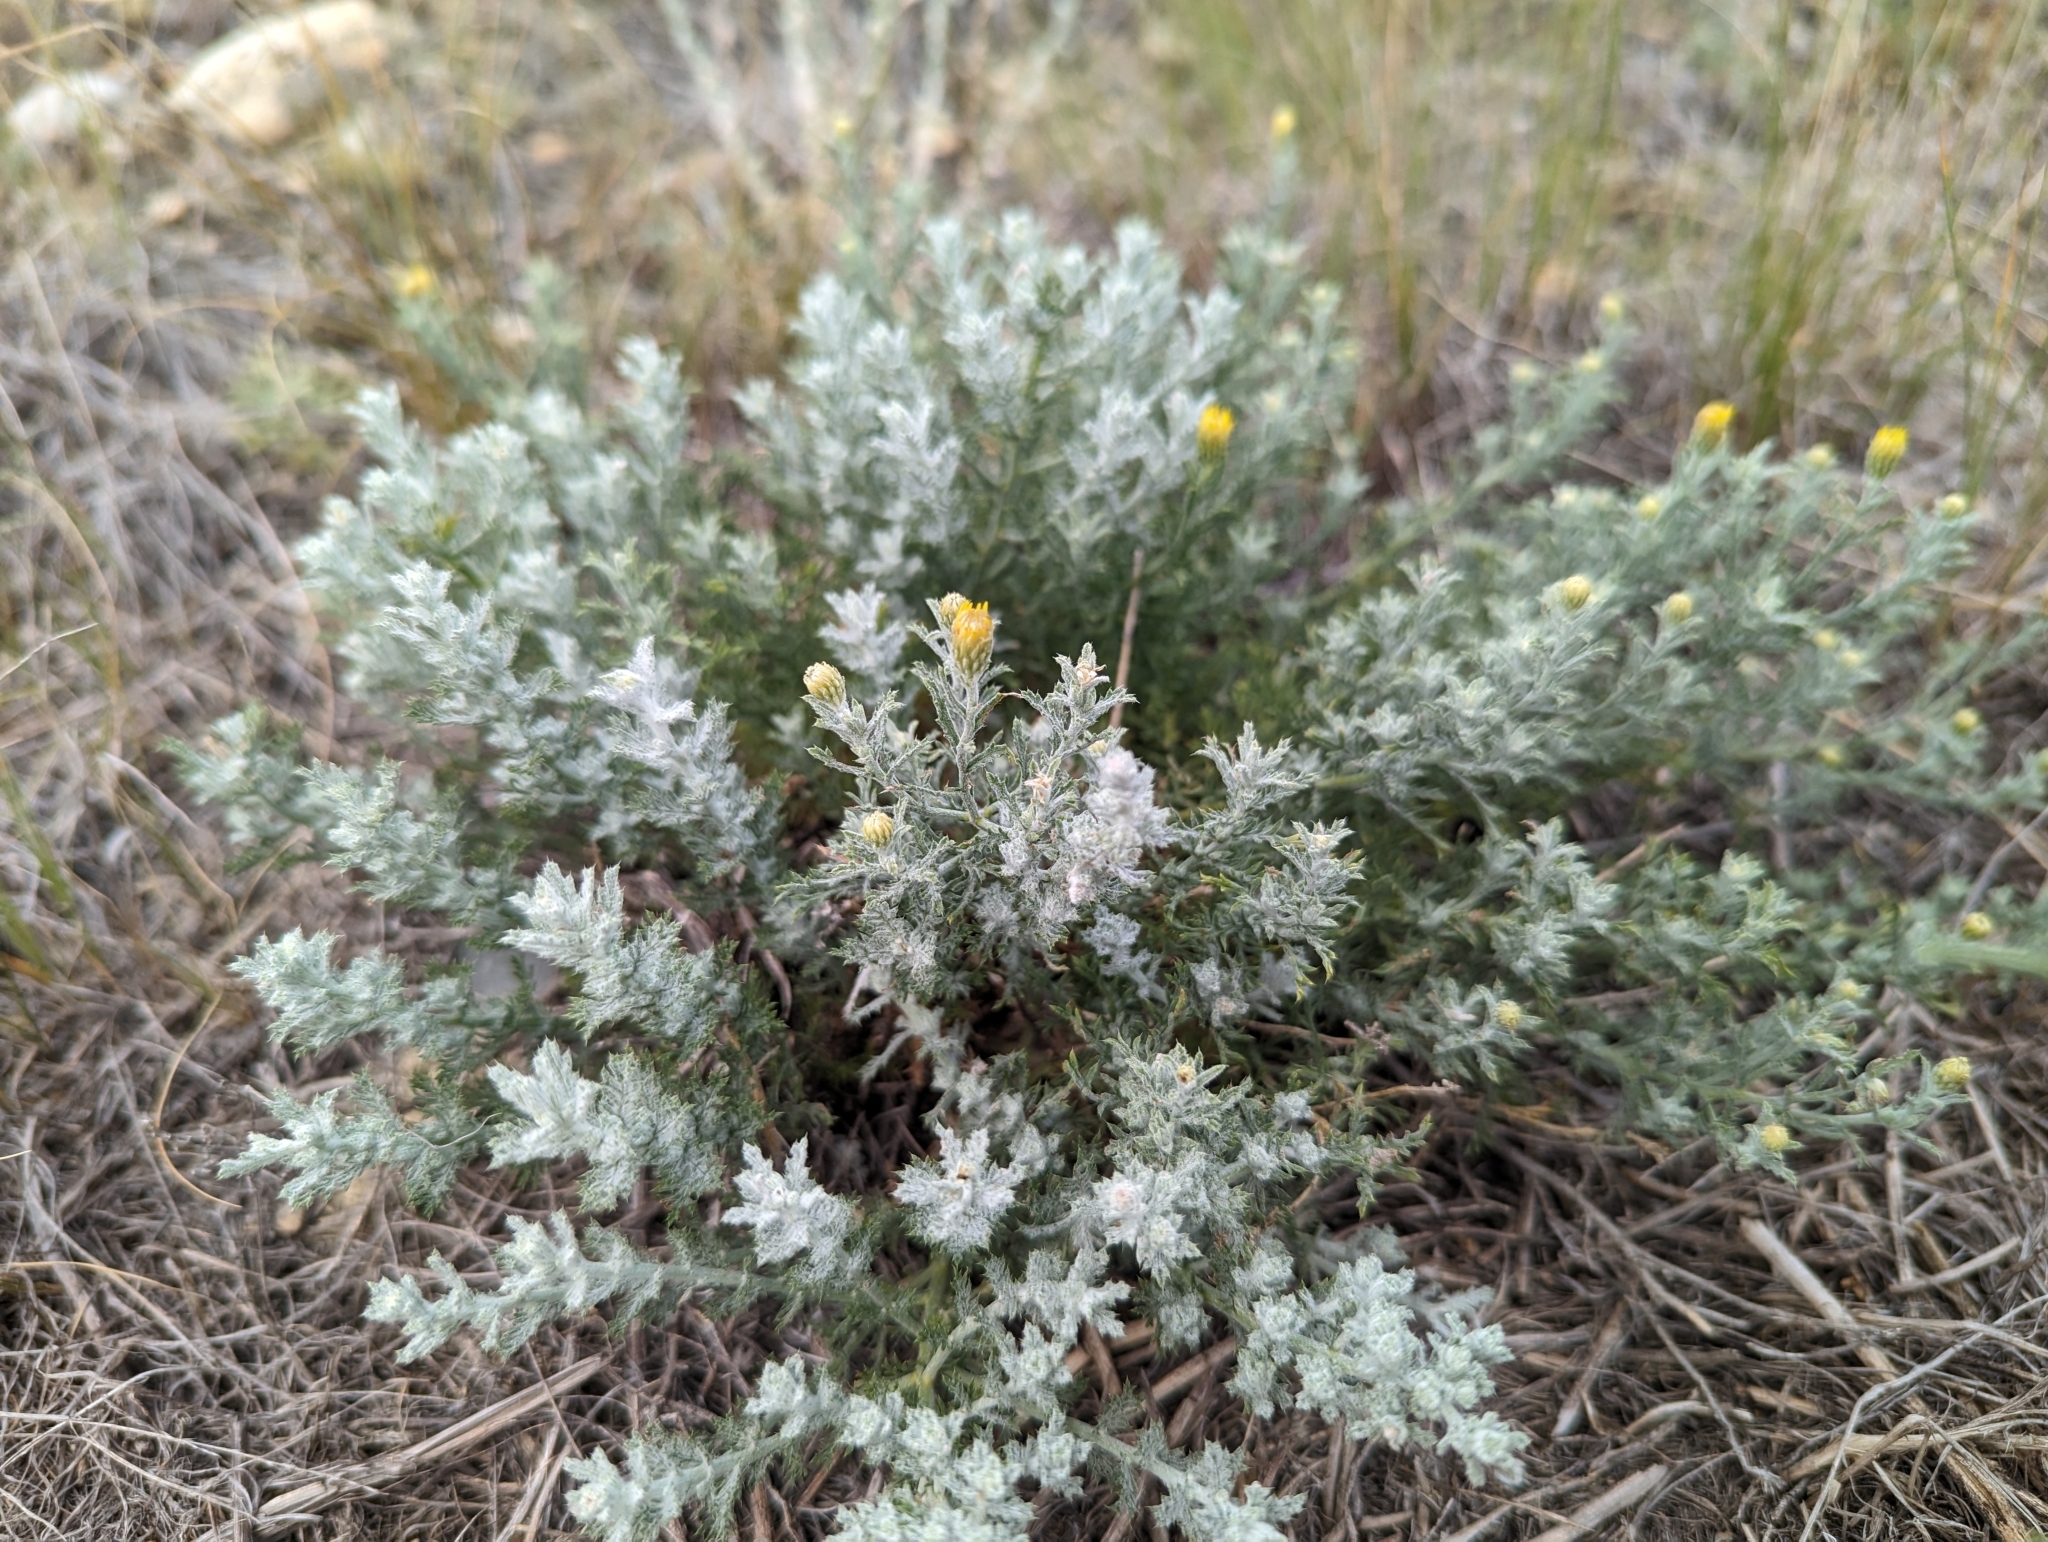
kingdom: Plantae
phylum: Tracheophyta
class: Magnoliopsida
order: Asterales
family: Asteraceae
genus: Xanthisma
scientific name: Xanthisma spinulosum
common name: Spiny goldenweed
